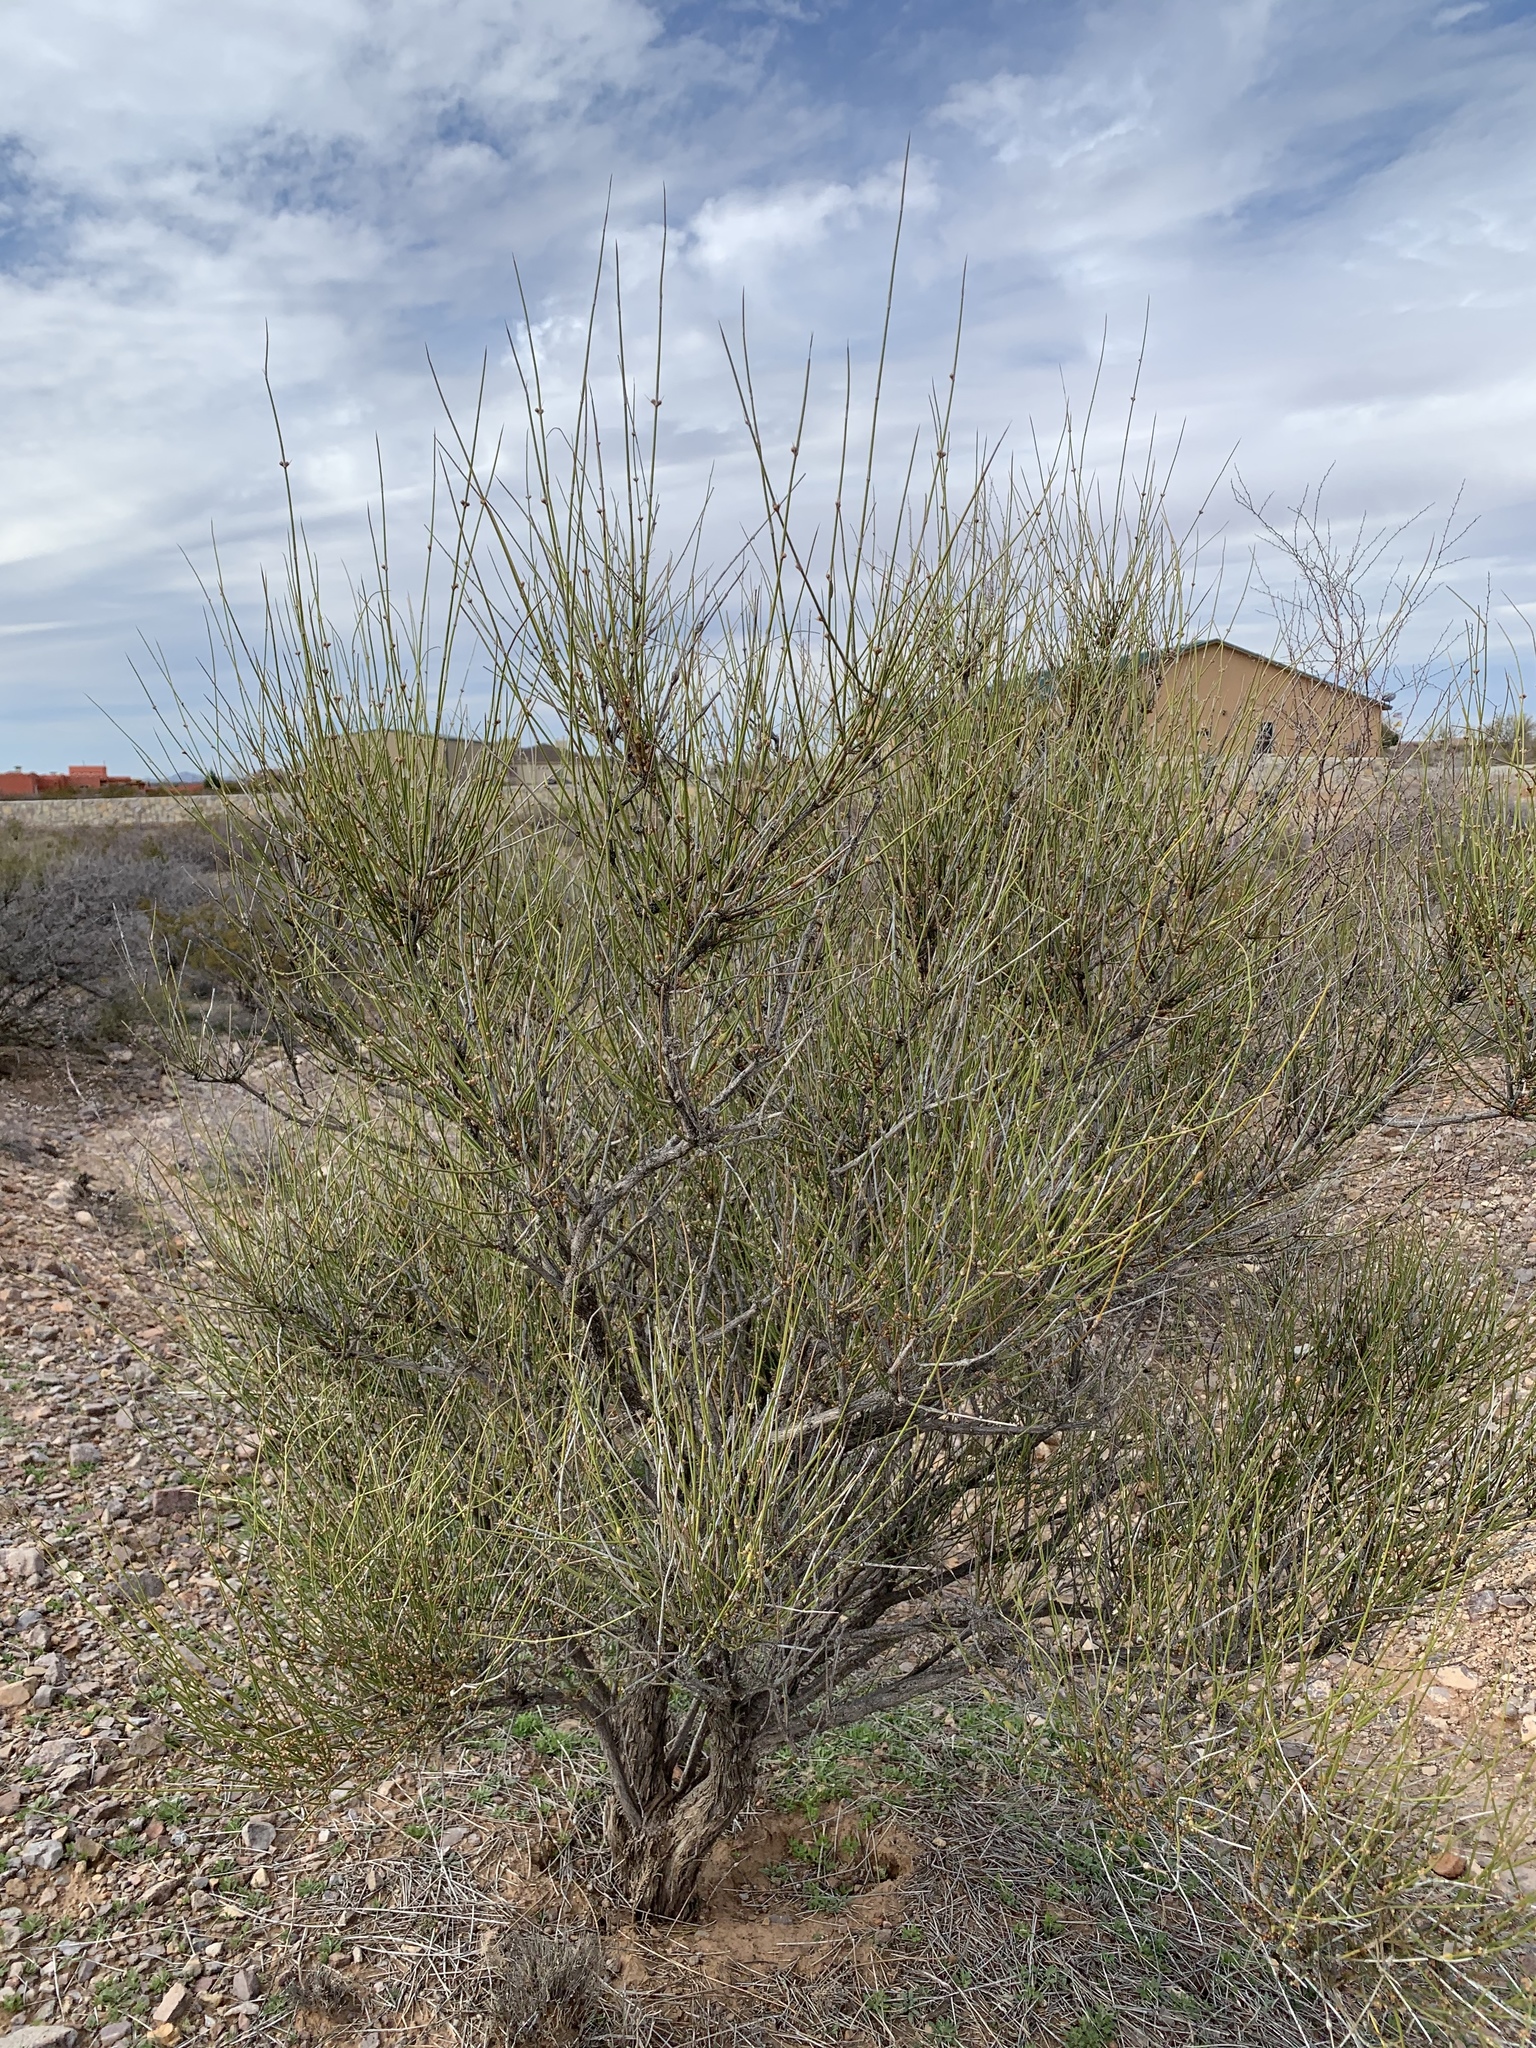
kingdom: Plantae
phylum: Tracheophyta
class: Gnetopsida
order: Ephedrales
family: Ephedraceae
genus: Ephedra
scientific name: Ephedra trifurca
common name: Mexican-tea
